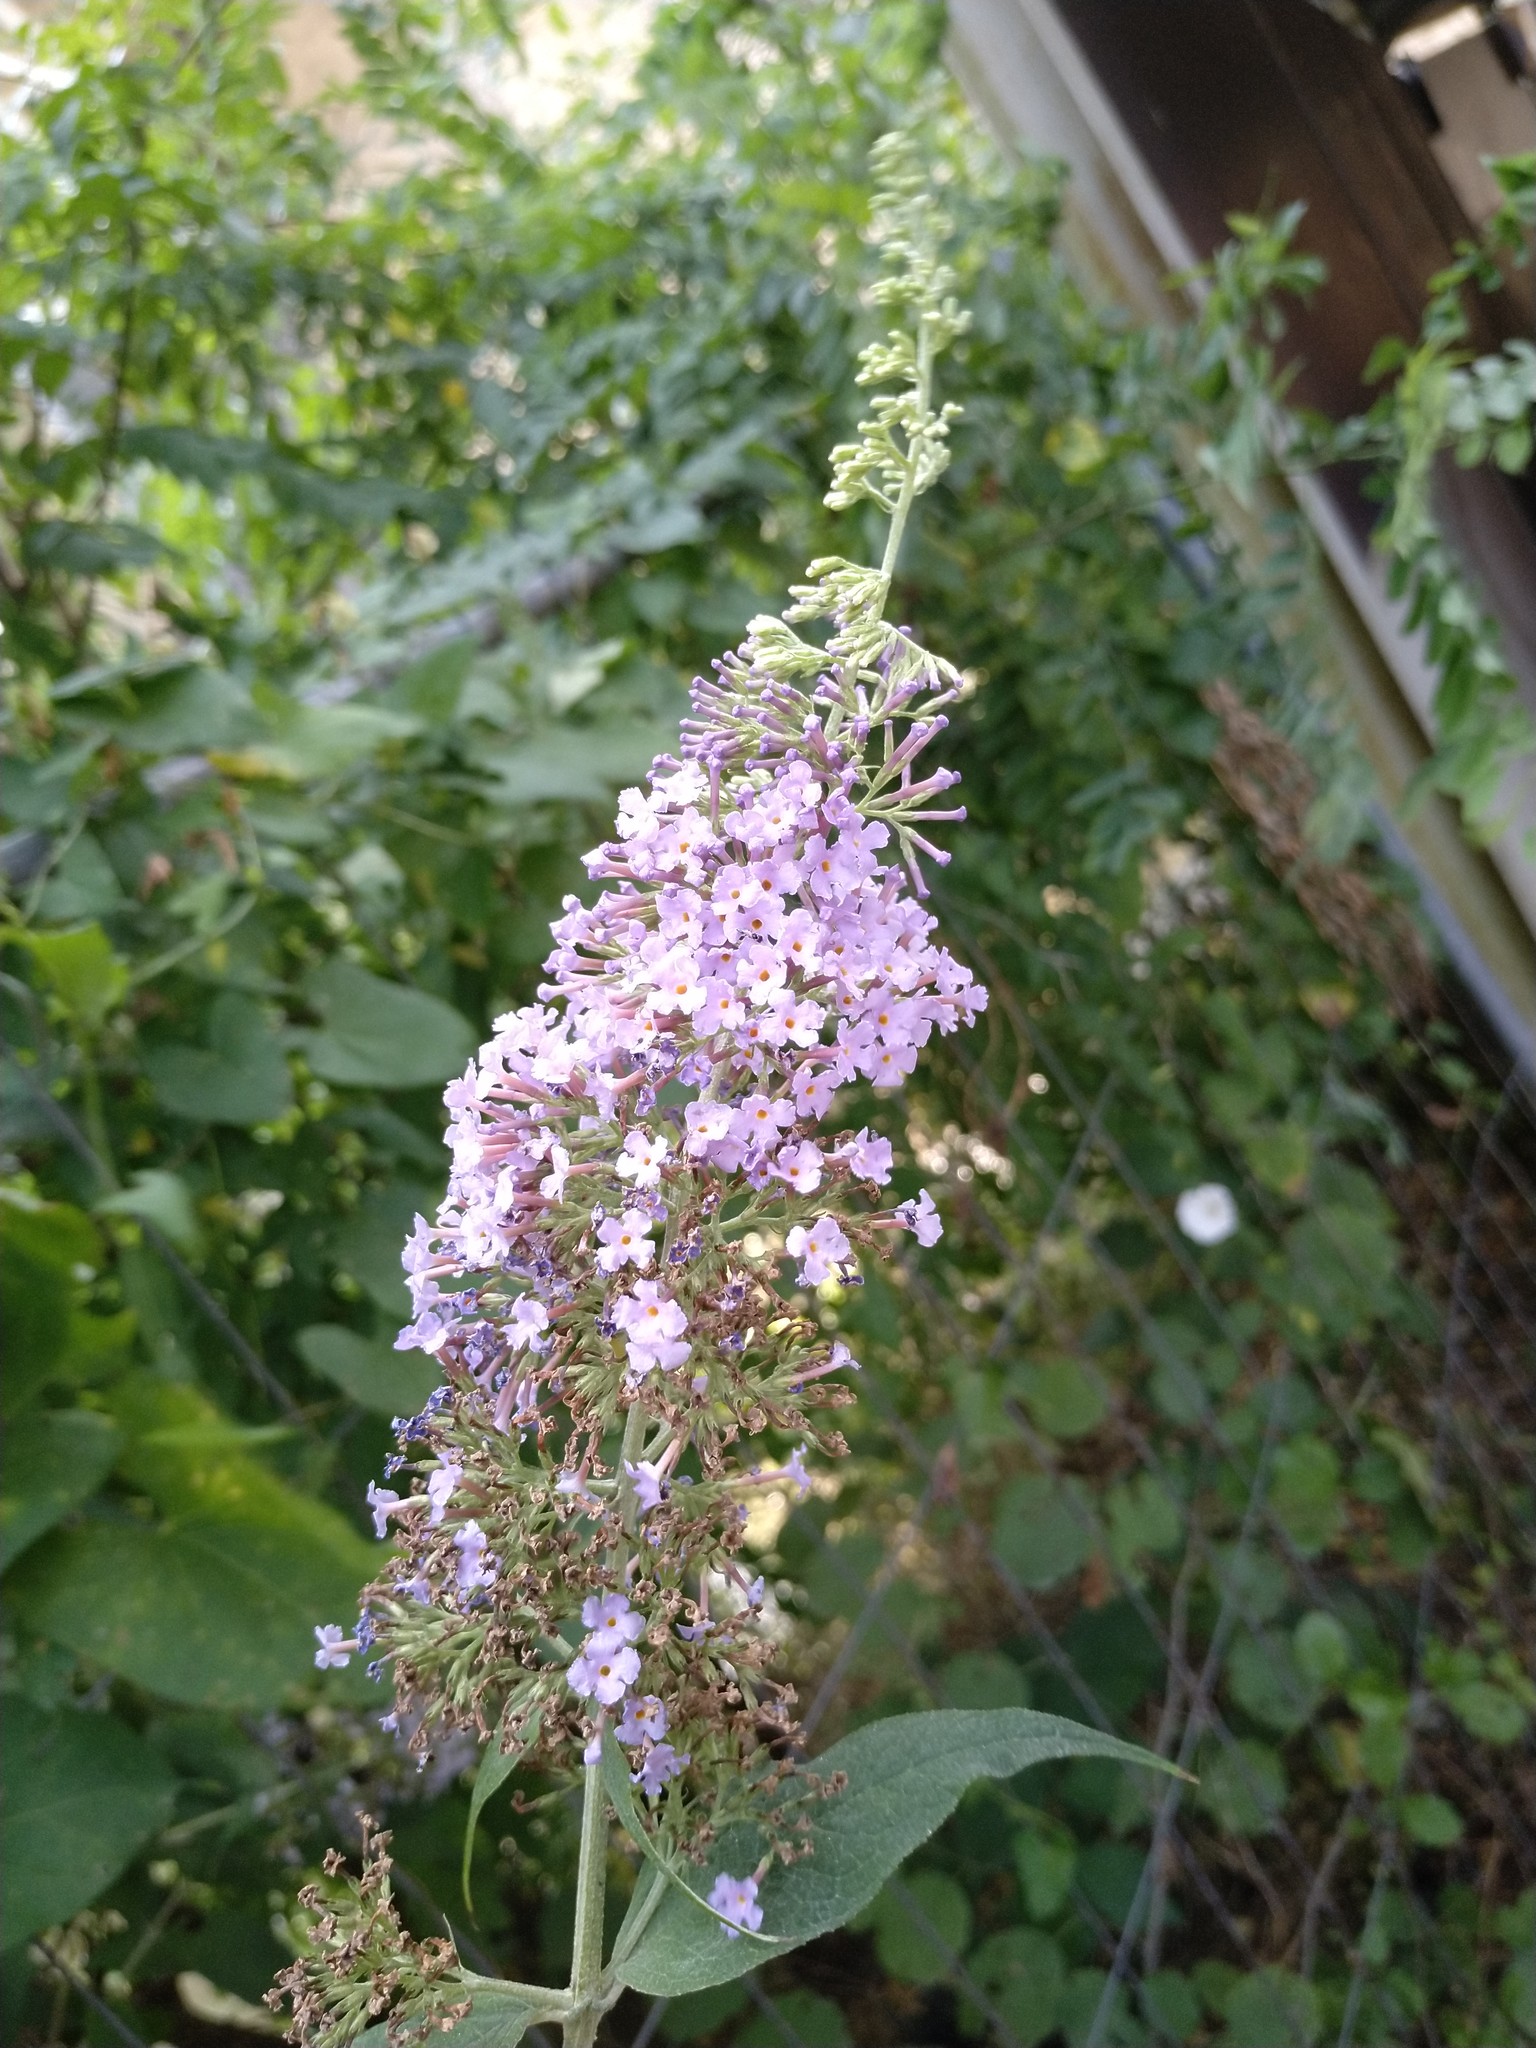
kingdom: Plantae
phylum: Tracheophyta
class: Magnoliopsida
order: Lamiales
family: Scrophulariaceae
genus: Buddleja
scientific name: Buddleja davidii
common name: Butterfly-bush
